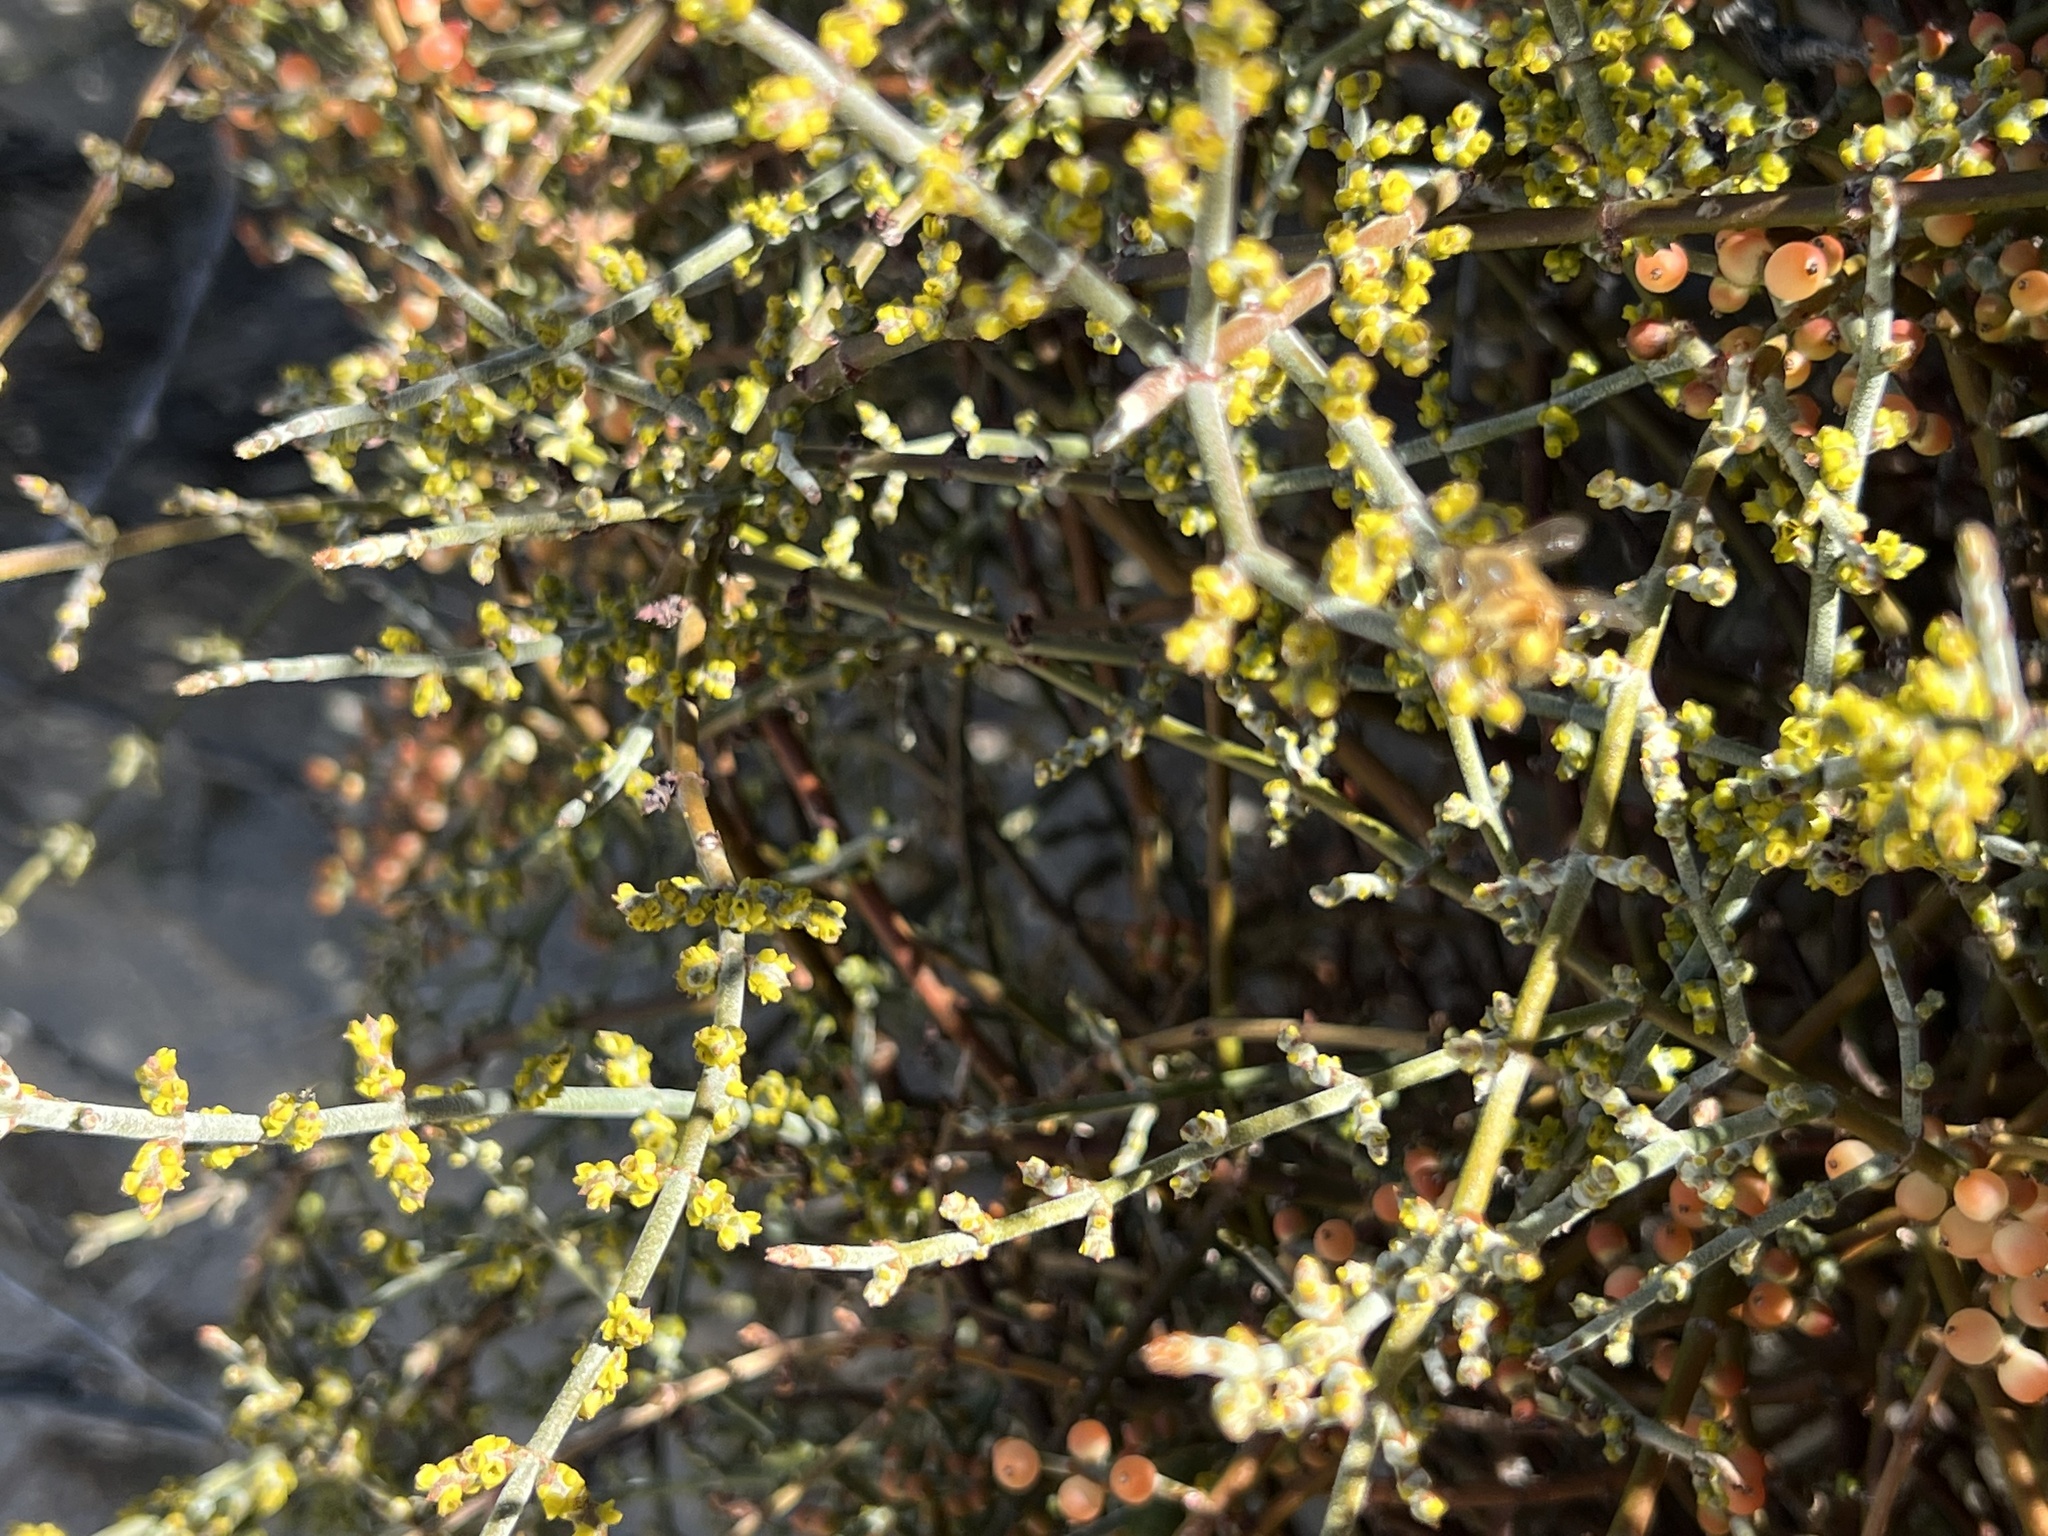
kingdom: Plantae
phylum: Tracheophyta
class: Magnoliopsida
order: Santalales
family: Viscaceae
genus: Phoradendron
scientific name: Phoradendron californicum
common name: Acacia mistletoe
